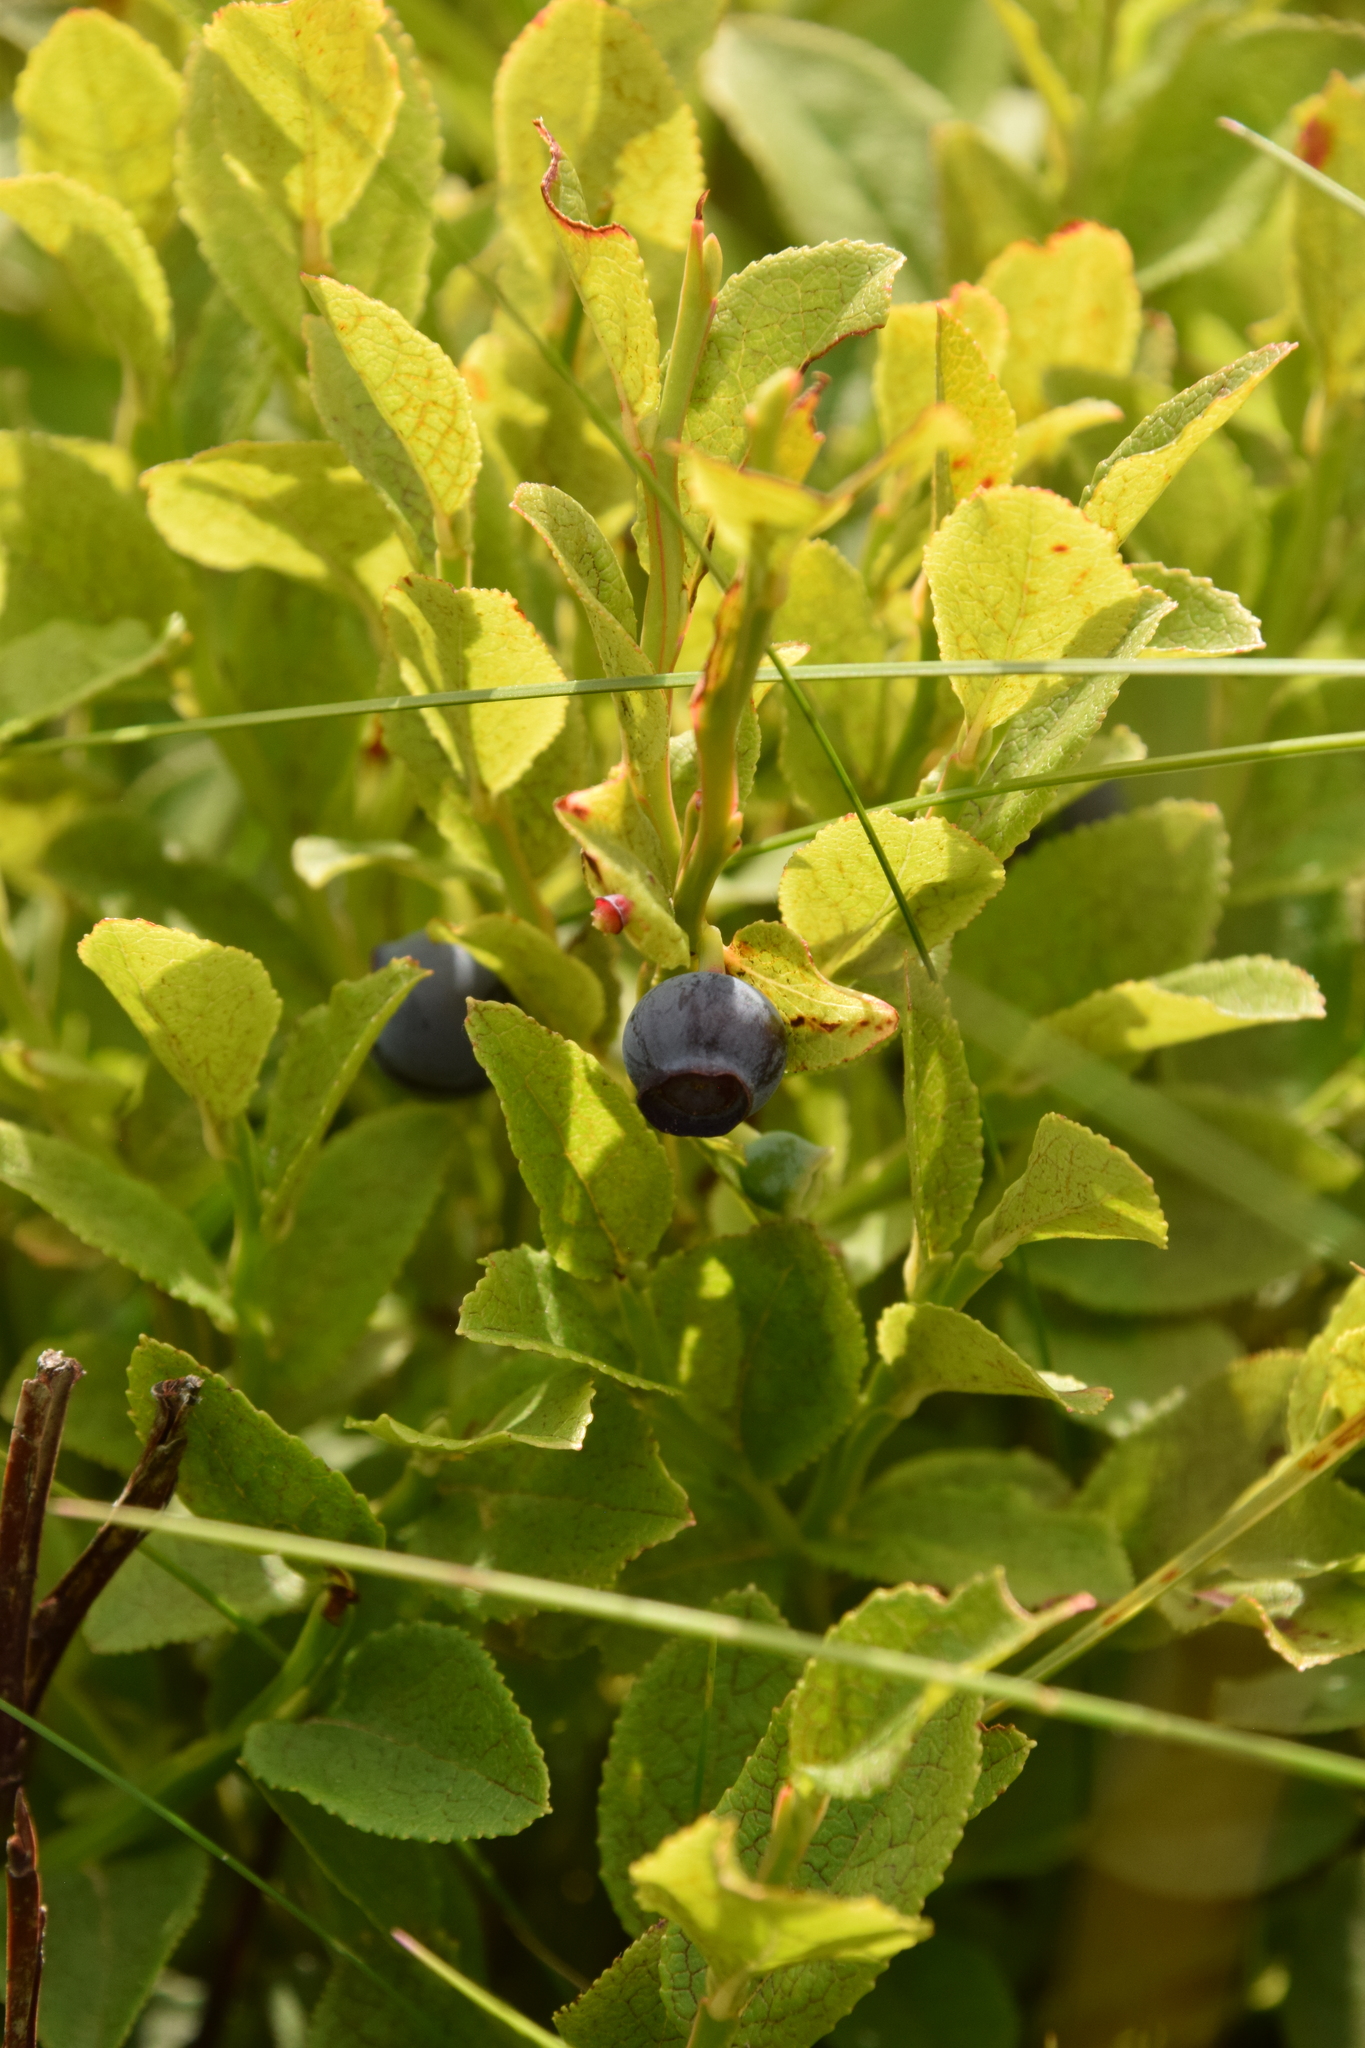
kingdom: Plantae
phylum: Tracheophyta
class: Magnoliopsida
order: Ericales
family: Ericaceae
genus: Vaccinium
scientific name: Vaccinium myrtillus
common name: Bilberry
